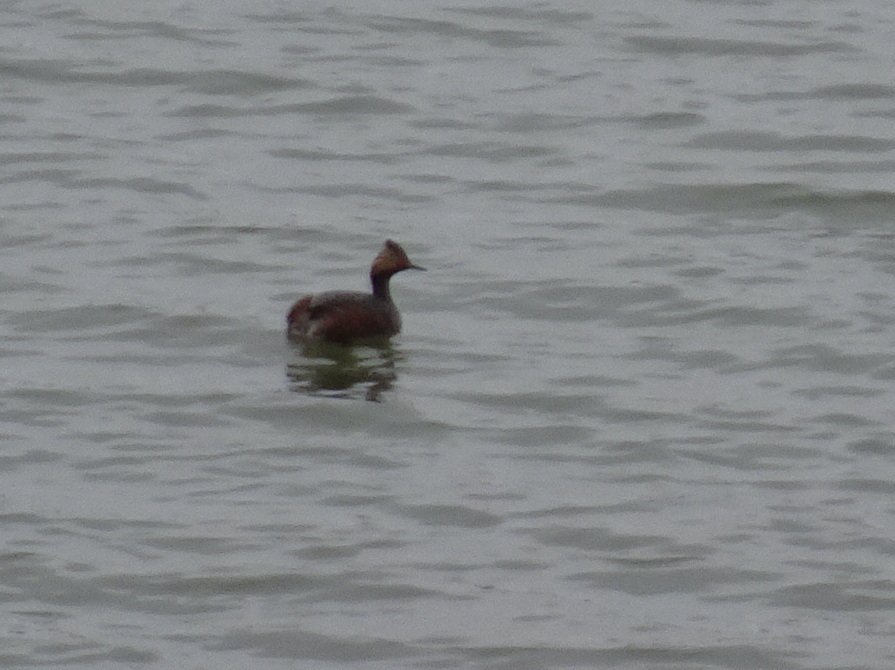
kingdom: Animalia
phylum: Chordata
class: Aves
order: Podicipediformes
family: Podicipedidae
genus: Podiceps
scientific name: Podiceps nigricollis
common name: Black-necked grebe
